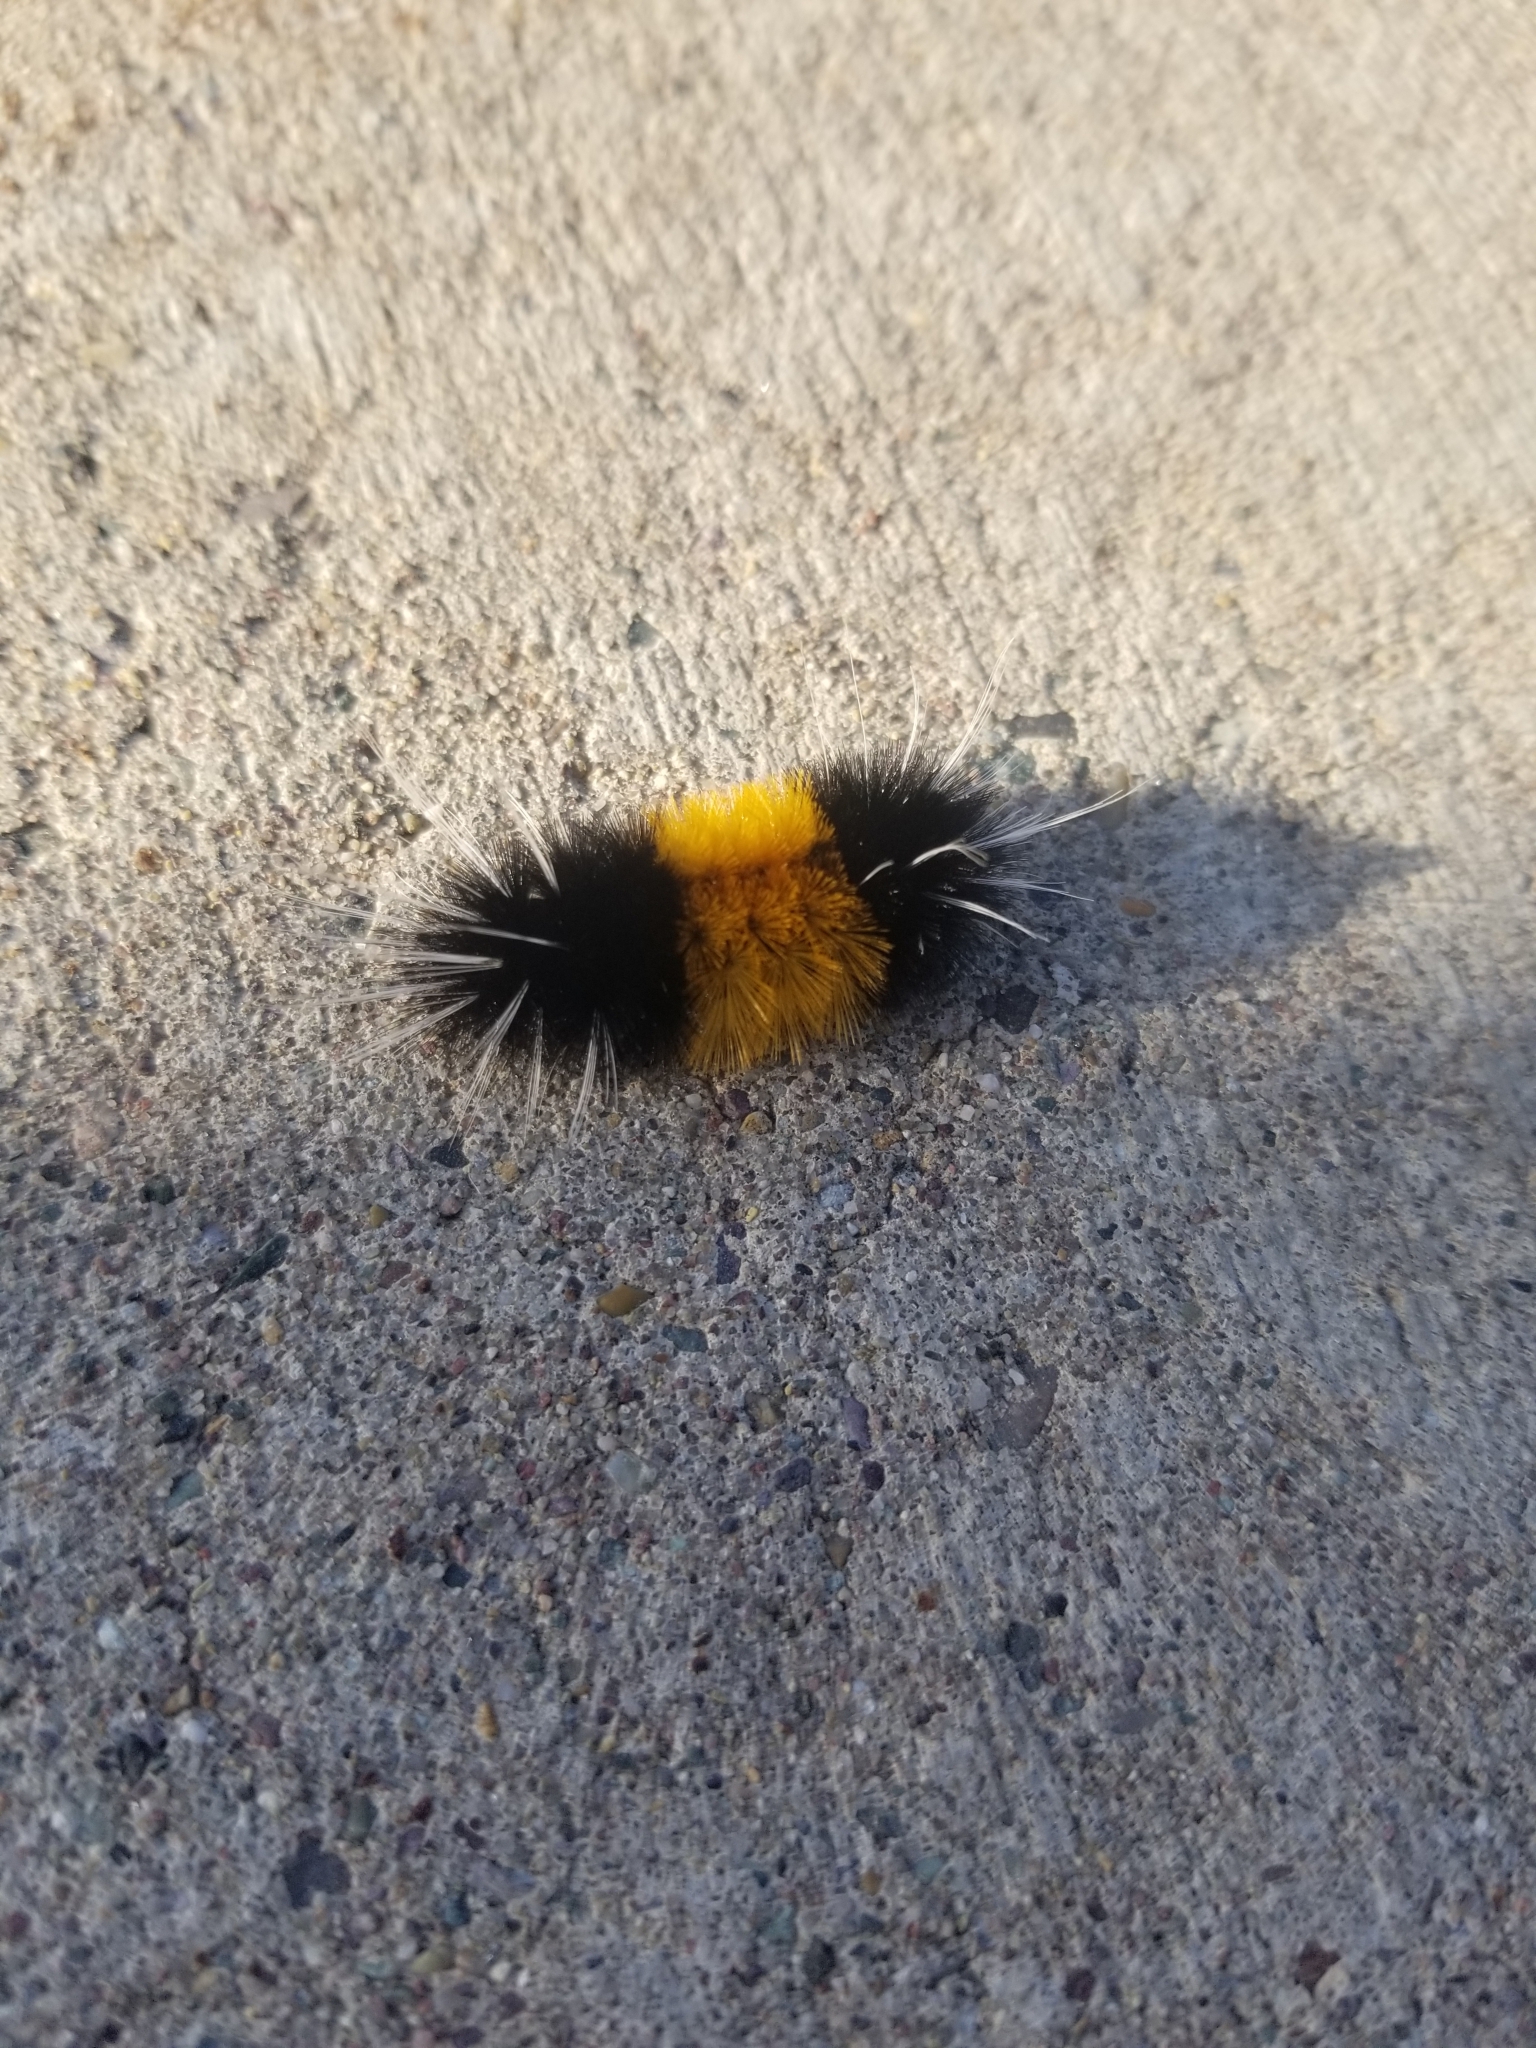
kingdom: Animalia
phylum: Arthropoda
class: Insecta
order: Lepidoptera
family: Erebidae
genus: Lophocampa
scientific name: Lophocampa maculata
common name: Spotted tussock moth
